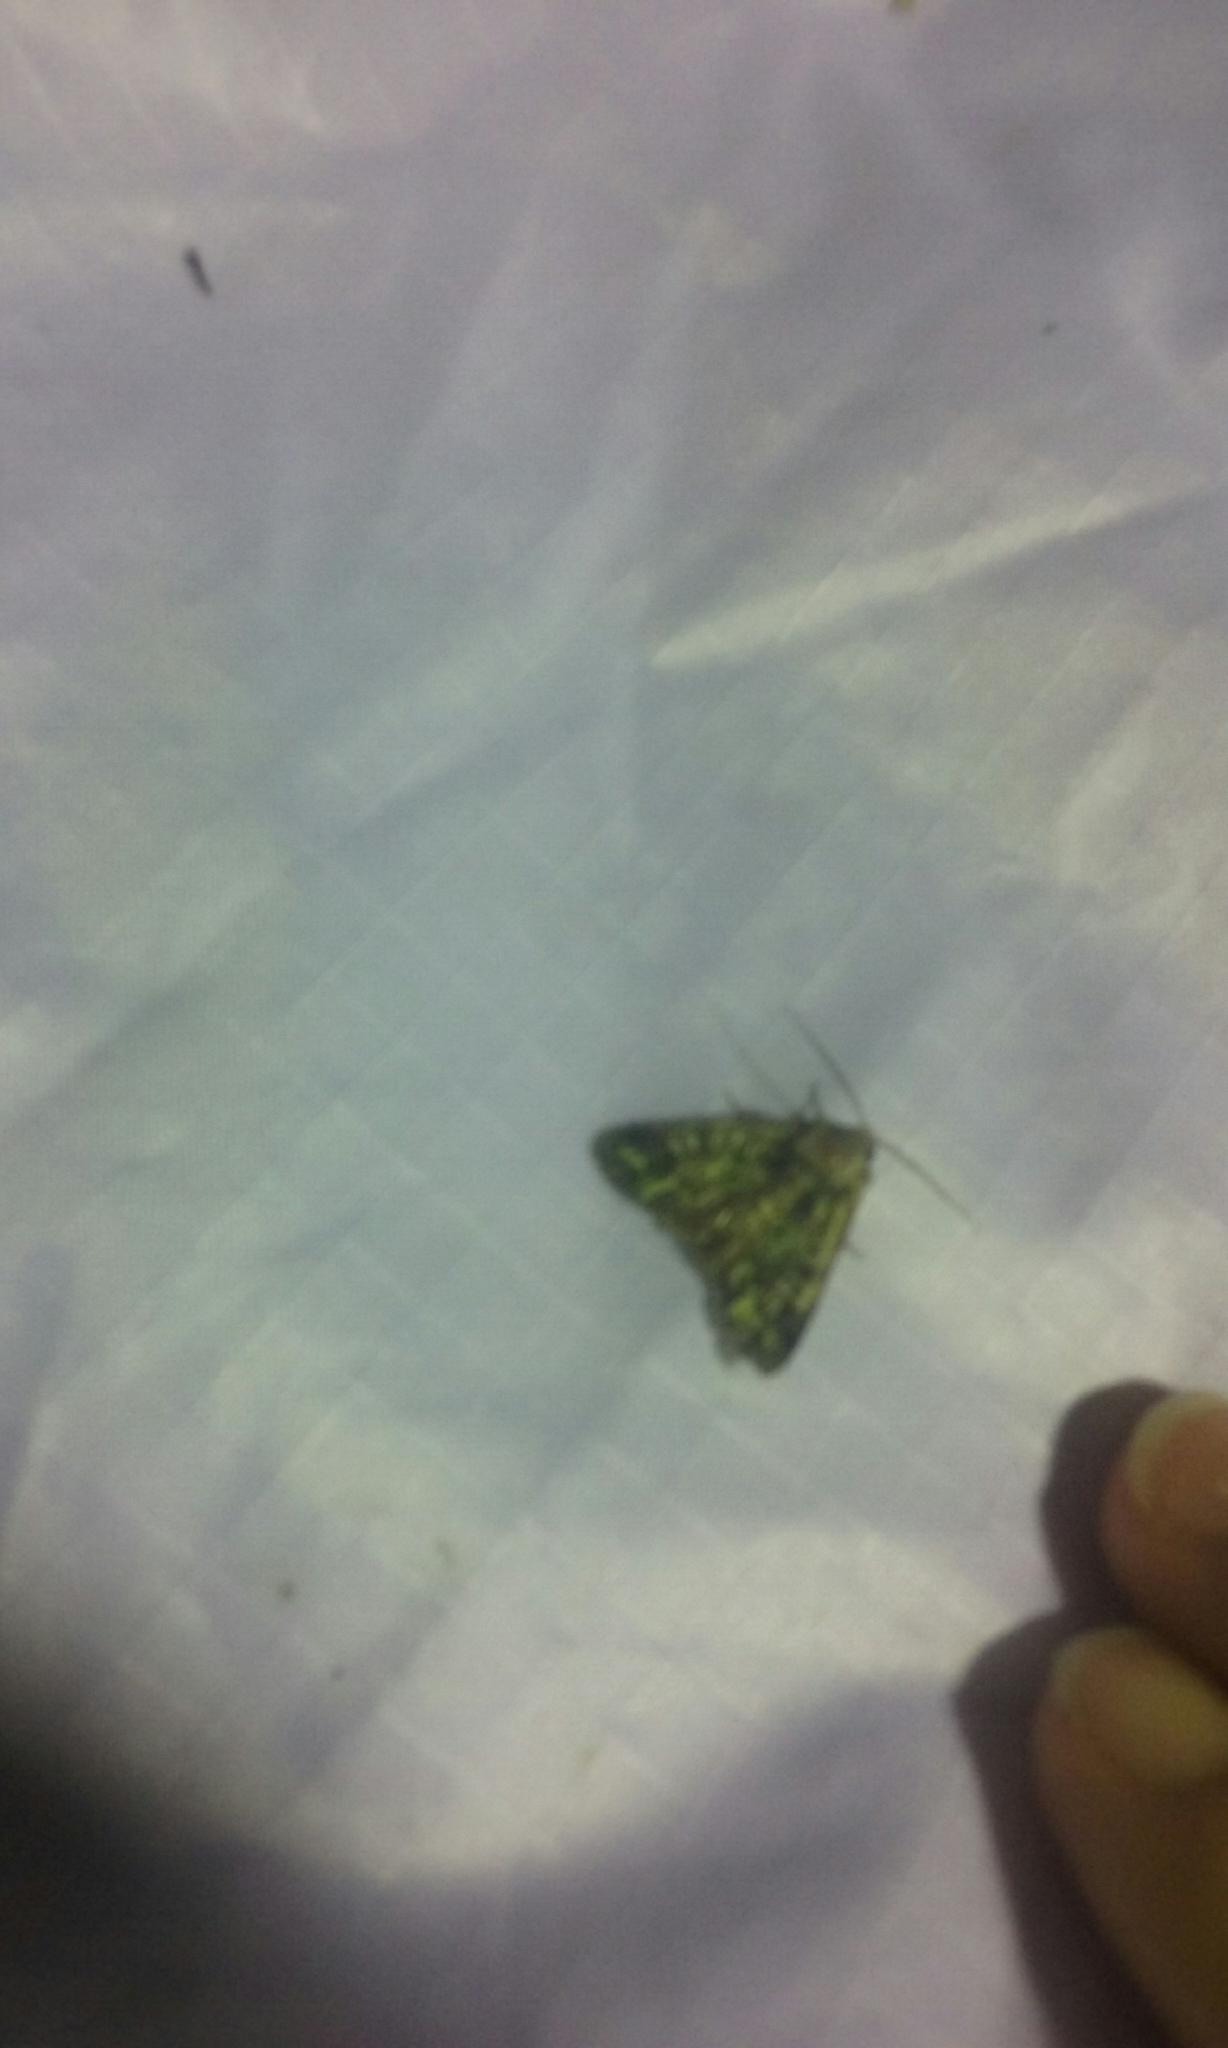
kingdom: Animalia
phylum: Arthropoda
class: Insecta
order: Lepidoptera
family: Noctuidae
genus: Ichneutica
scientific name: Ichneutica chlorodonta
